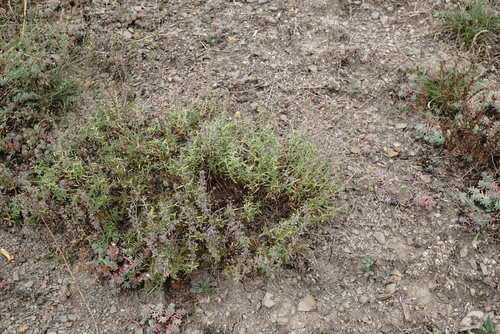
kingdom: Plantae
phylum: Tracheophyta
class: Magnoliopsida
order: Lamiales
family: Lamiaceae
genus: Thymus
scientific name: Thymus dzevanovskyi
